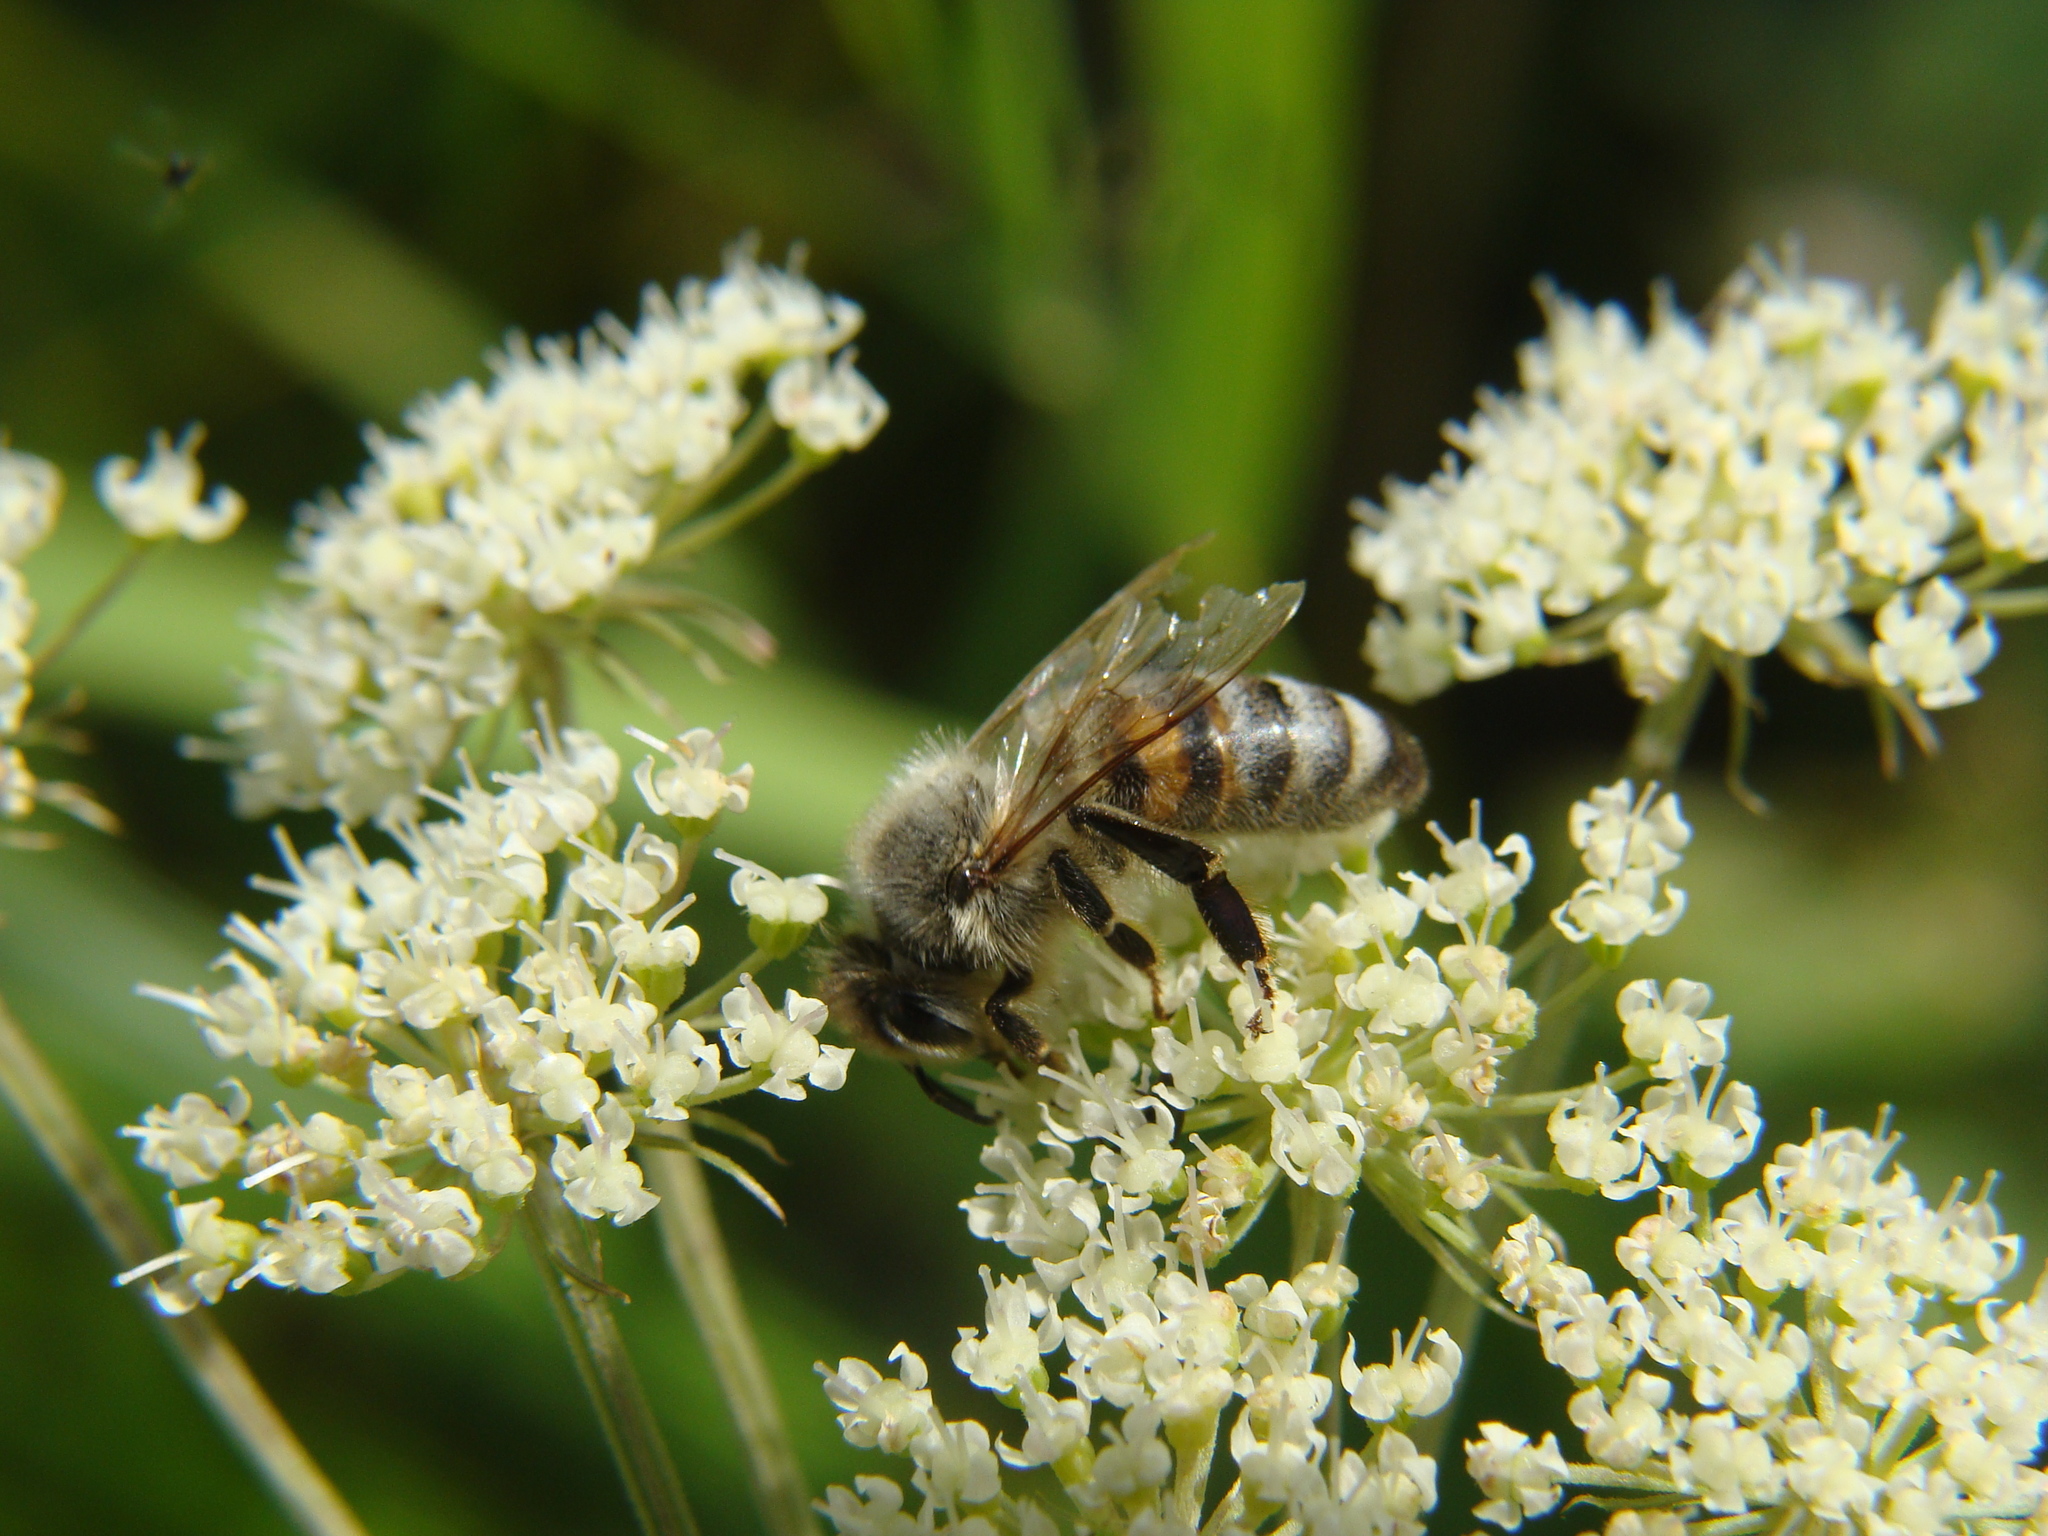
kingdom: Animalia
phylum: Arthropoda
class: Insecta
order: Hymenoptera
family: Apidae
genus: Apis
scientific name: Apis mellifera
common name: Honey bee
